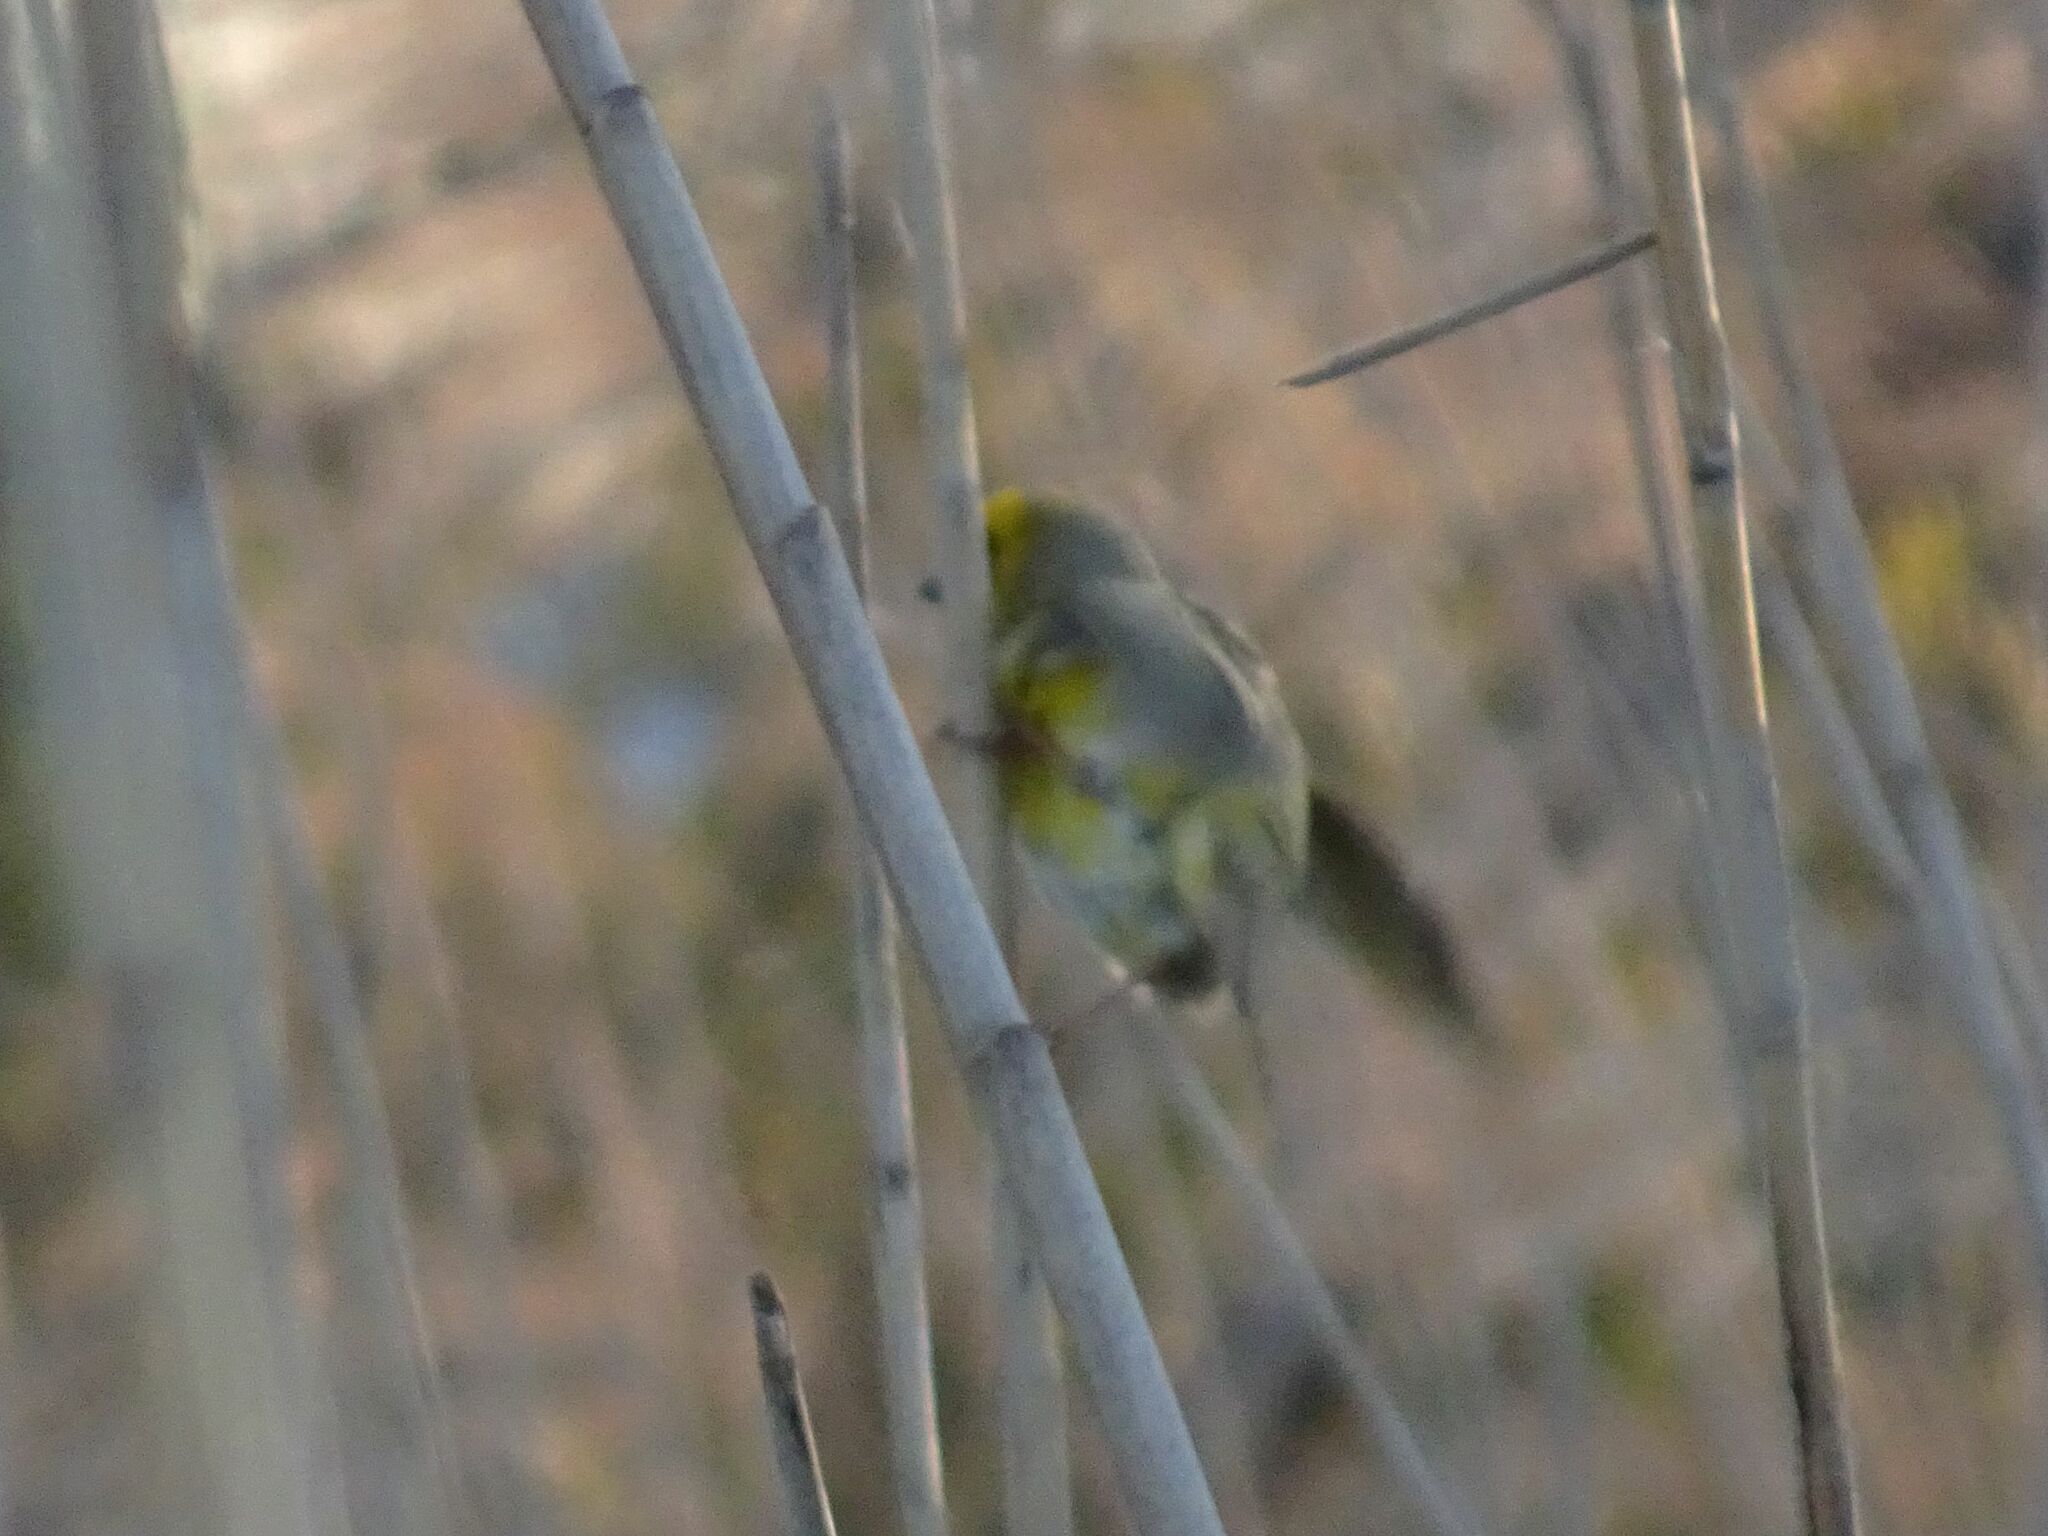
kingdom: Animalia
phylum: Chordata
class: Aves
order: Passeriformes
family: Fringillidae
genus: Serinus
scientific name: Serinus canicollis
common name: Cape canary
